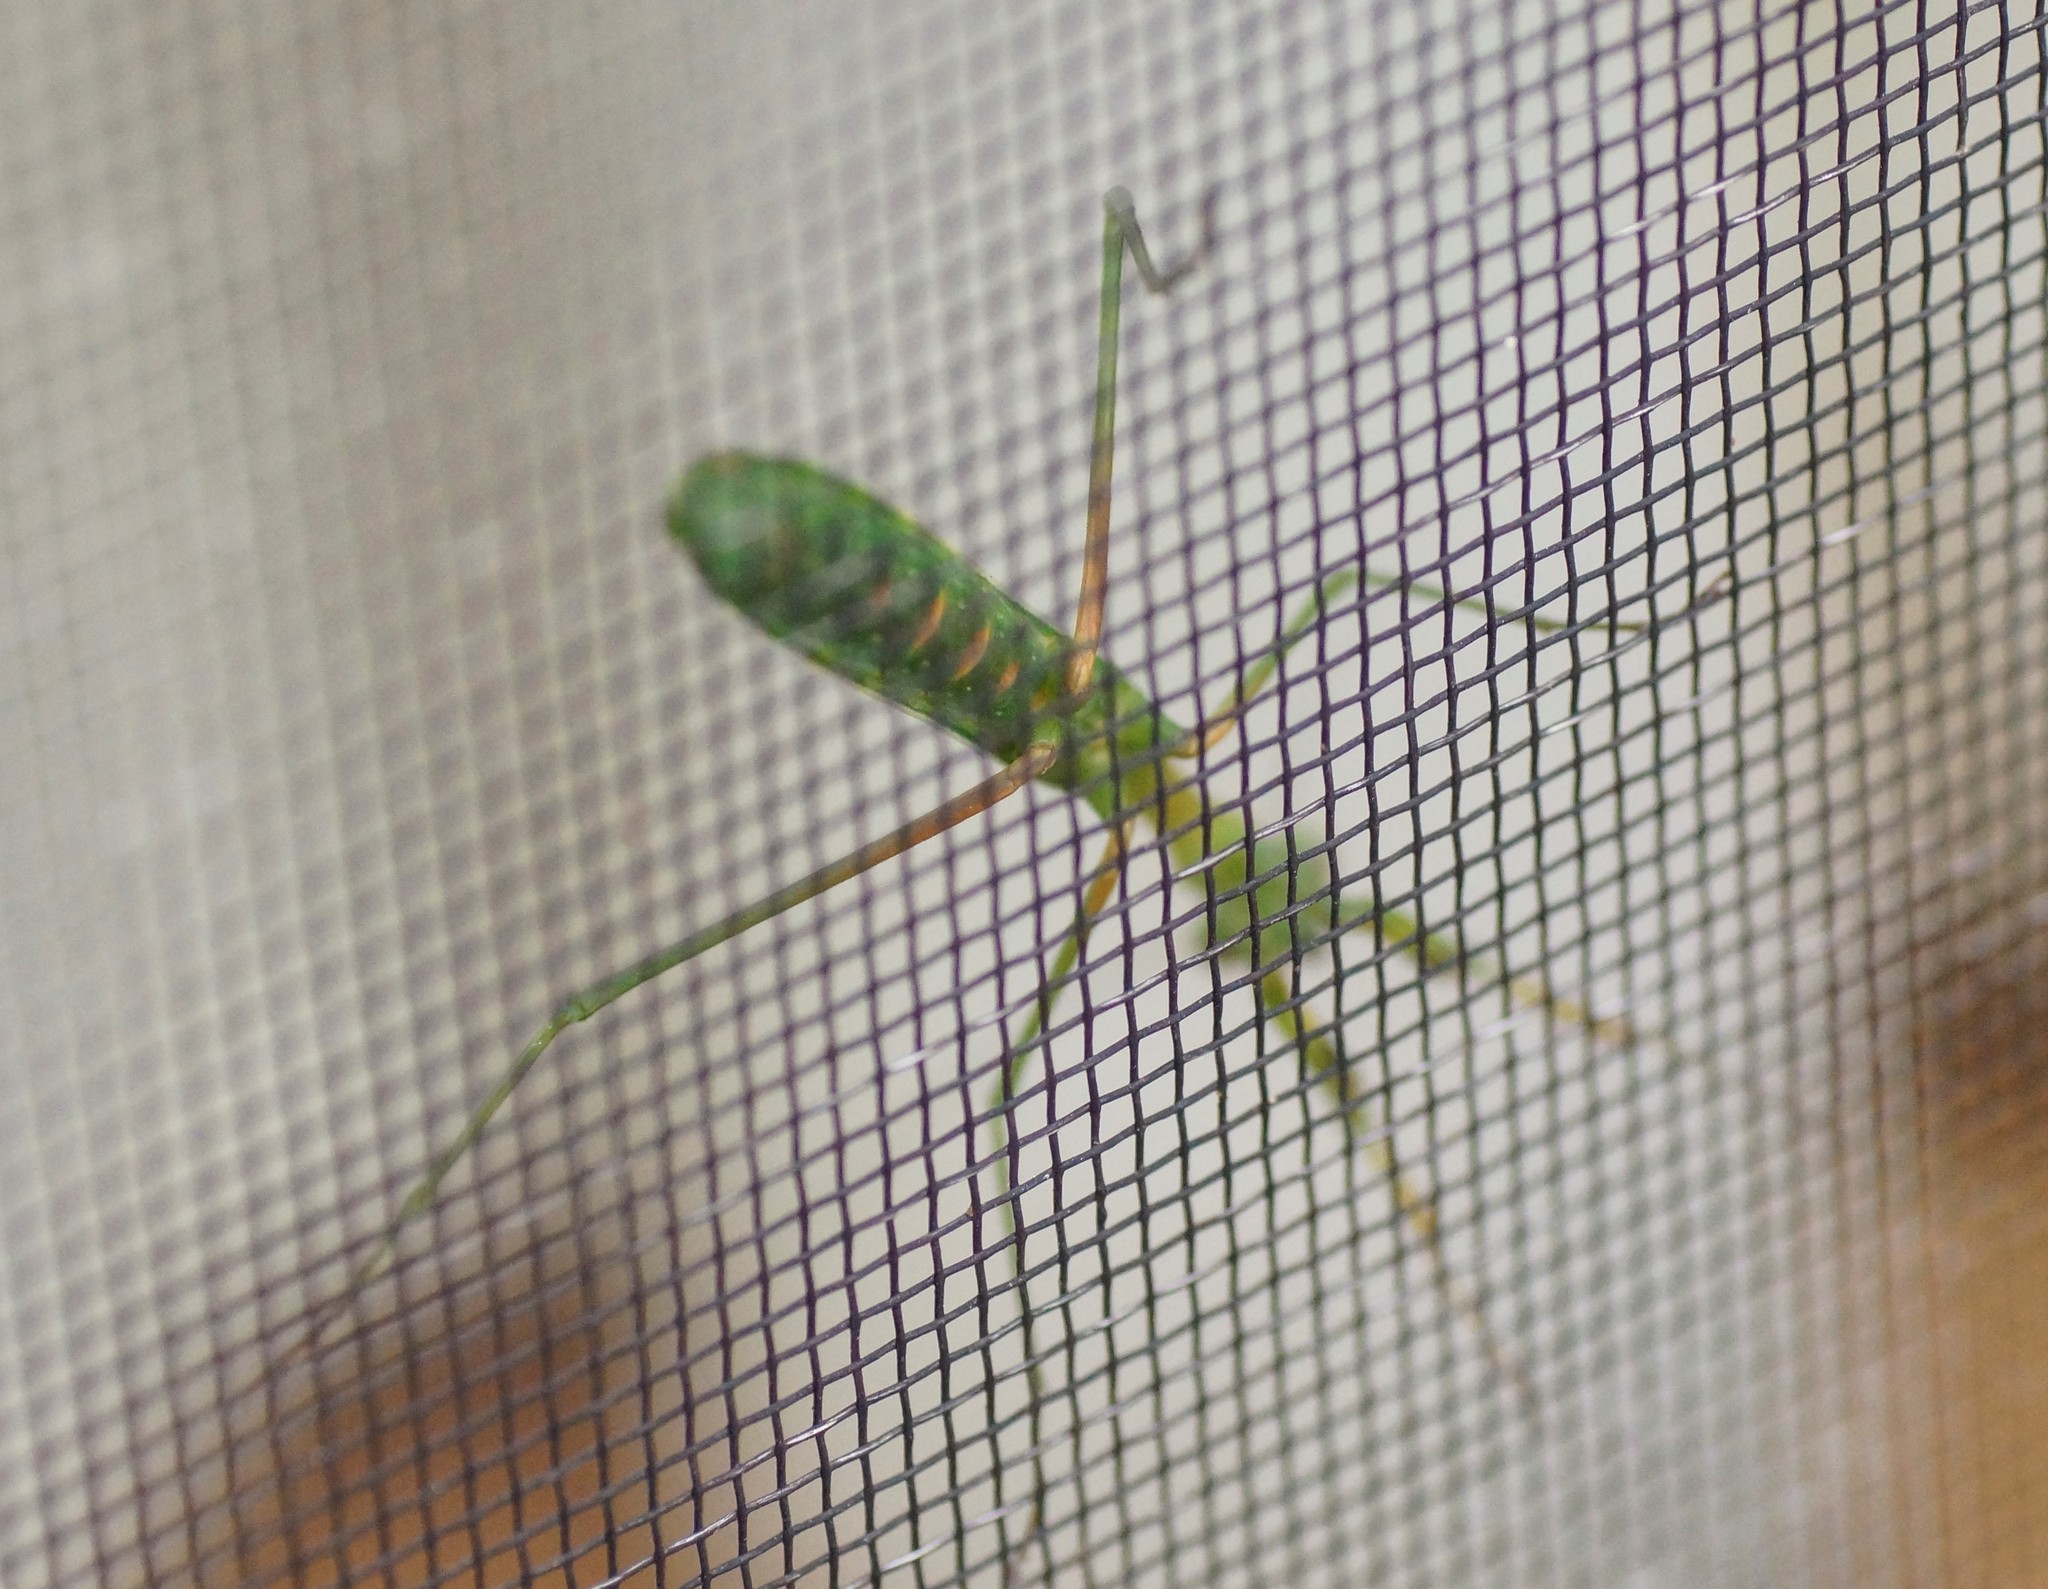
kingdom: Animalia
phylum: Arthropoda
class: Insecta
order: Mantodea
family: Mantidae
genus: Pseudomantis
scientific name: Pseudomantis albofimbriata
